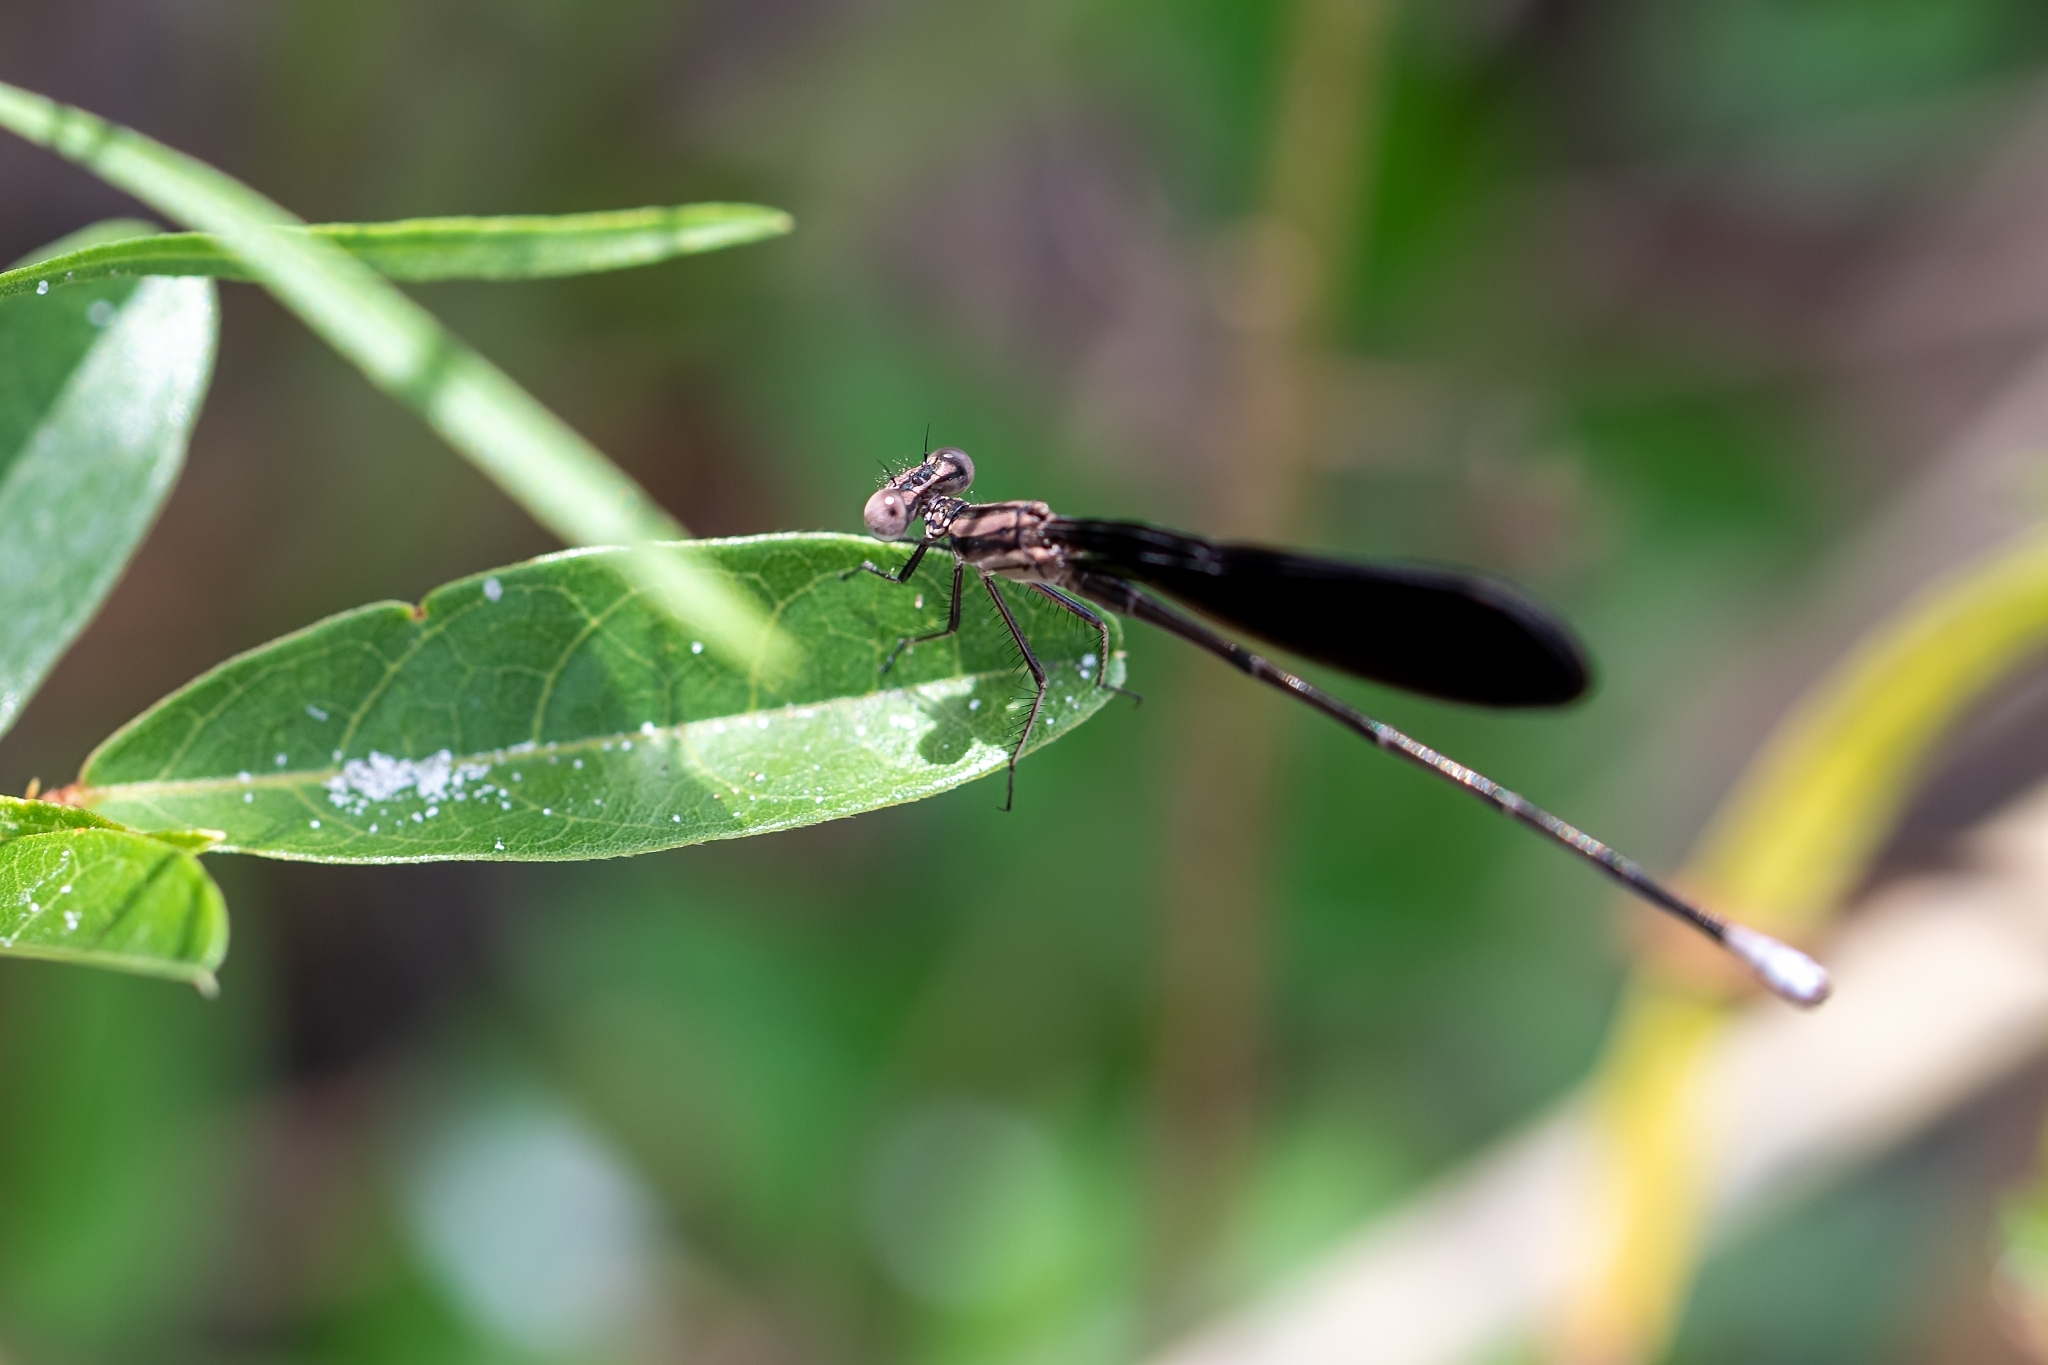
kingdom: Animalia
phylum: Arthropoda
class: Insecta
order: Odonata
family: Coenagrionidae
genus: Argia
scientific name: Argia fumipennis
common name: Variable dancer
